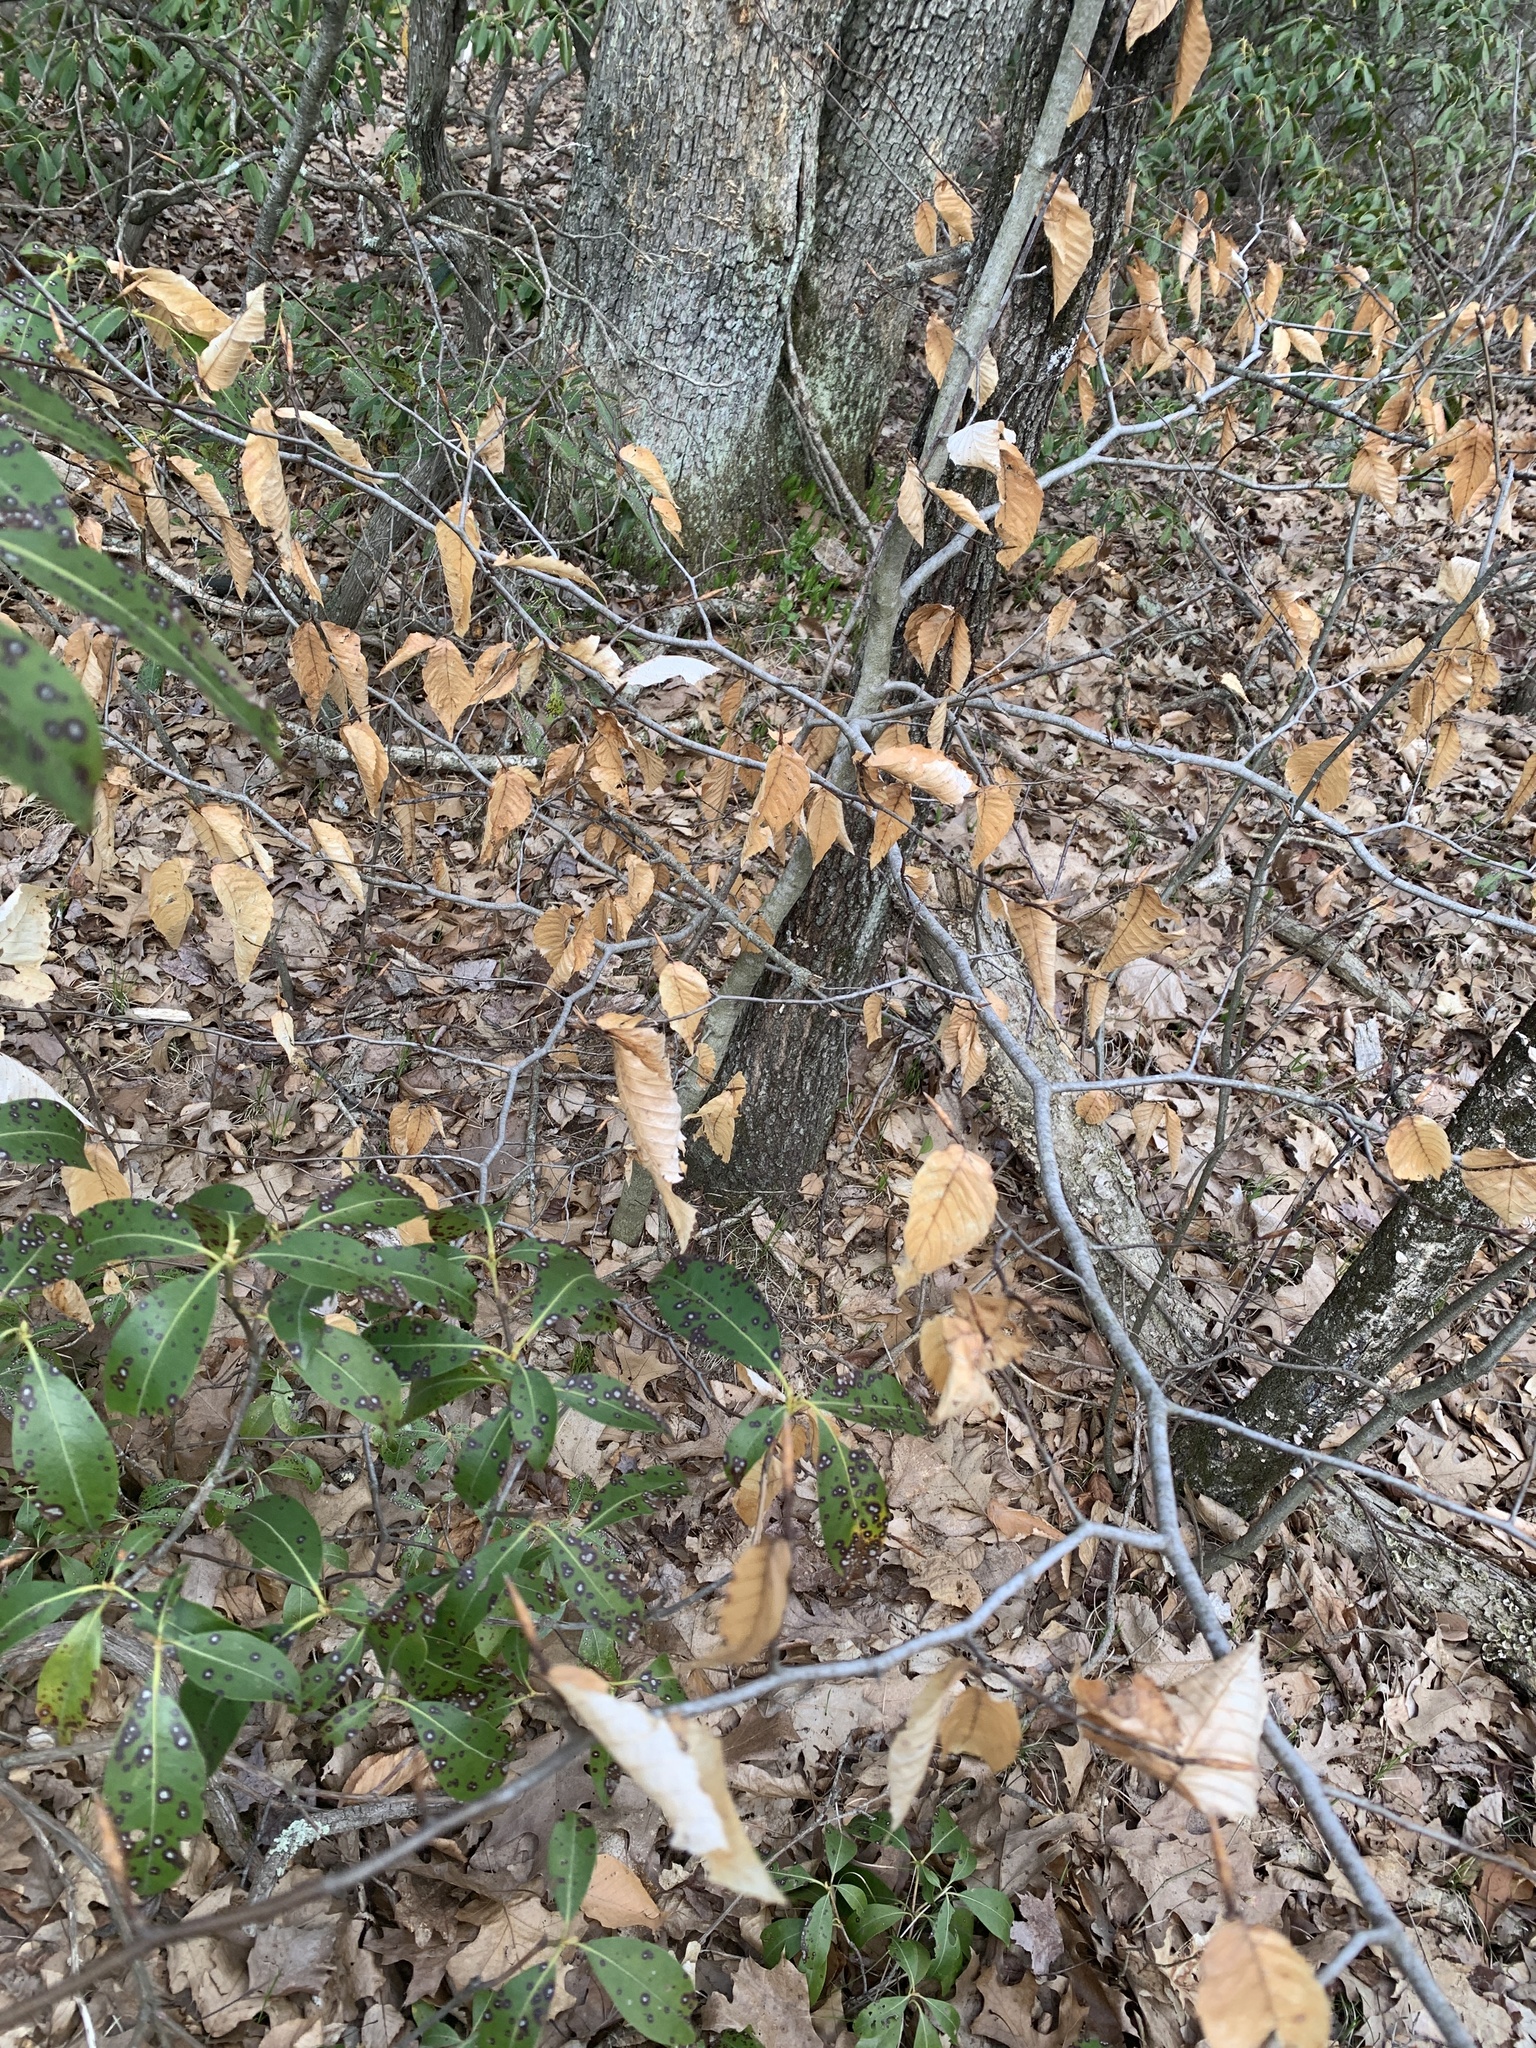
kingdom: Plantae
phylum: Tracheophyta
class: Magnoliopsida
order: Fagales
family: Fagaceae
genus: Fagus
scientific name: Fagus grandifolia
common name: American beech
